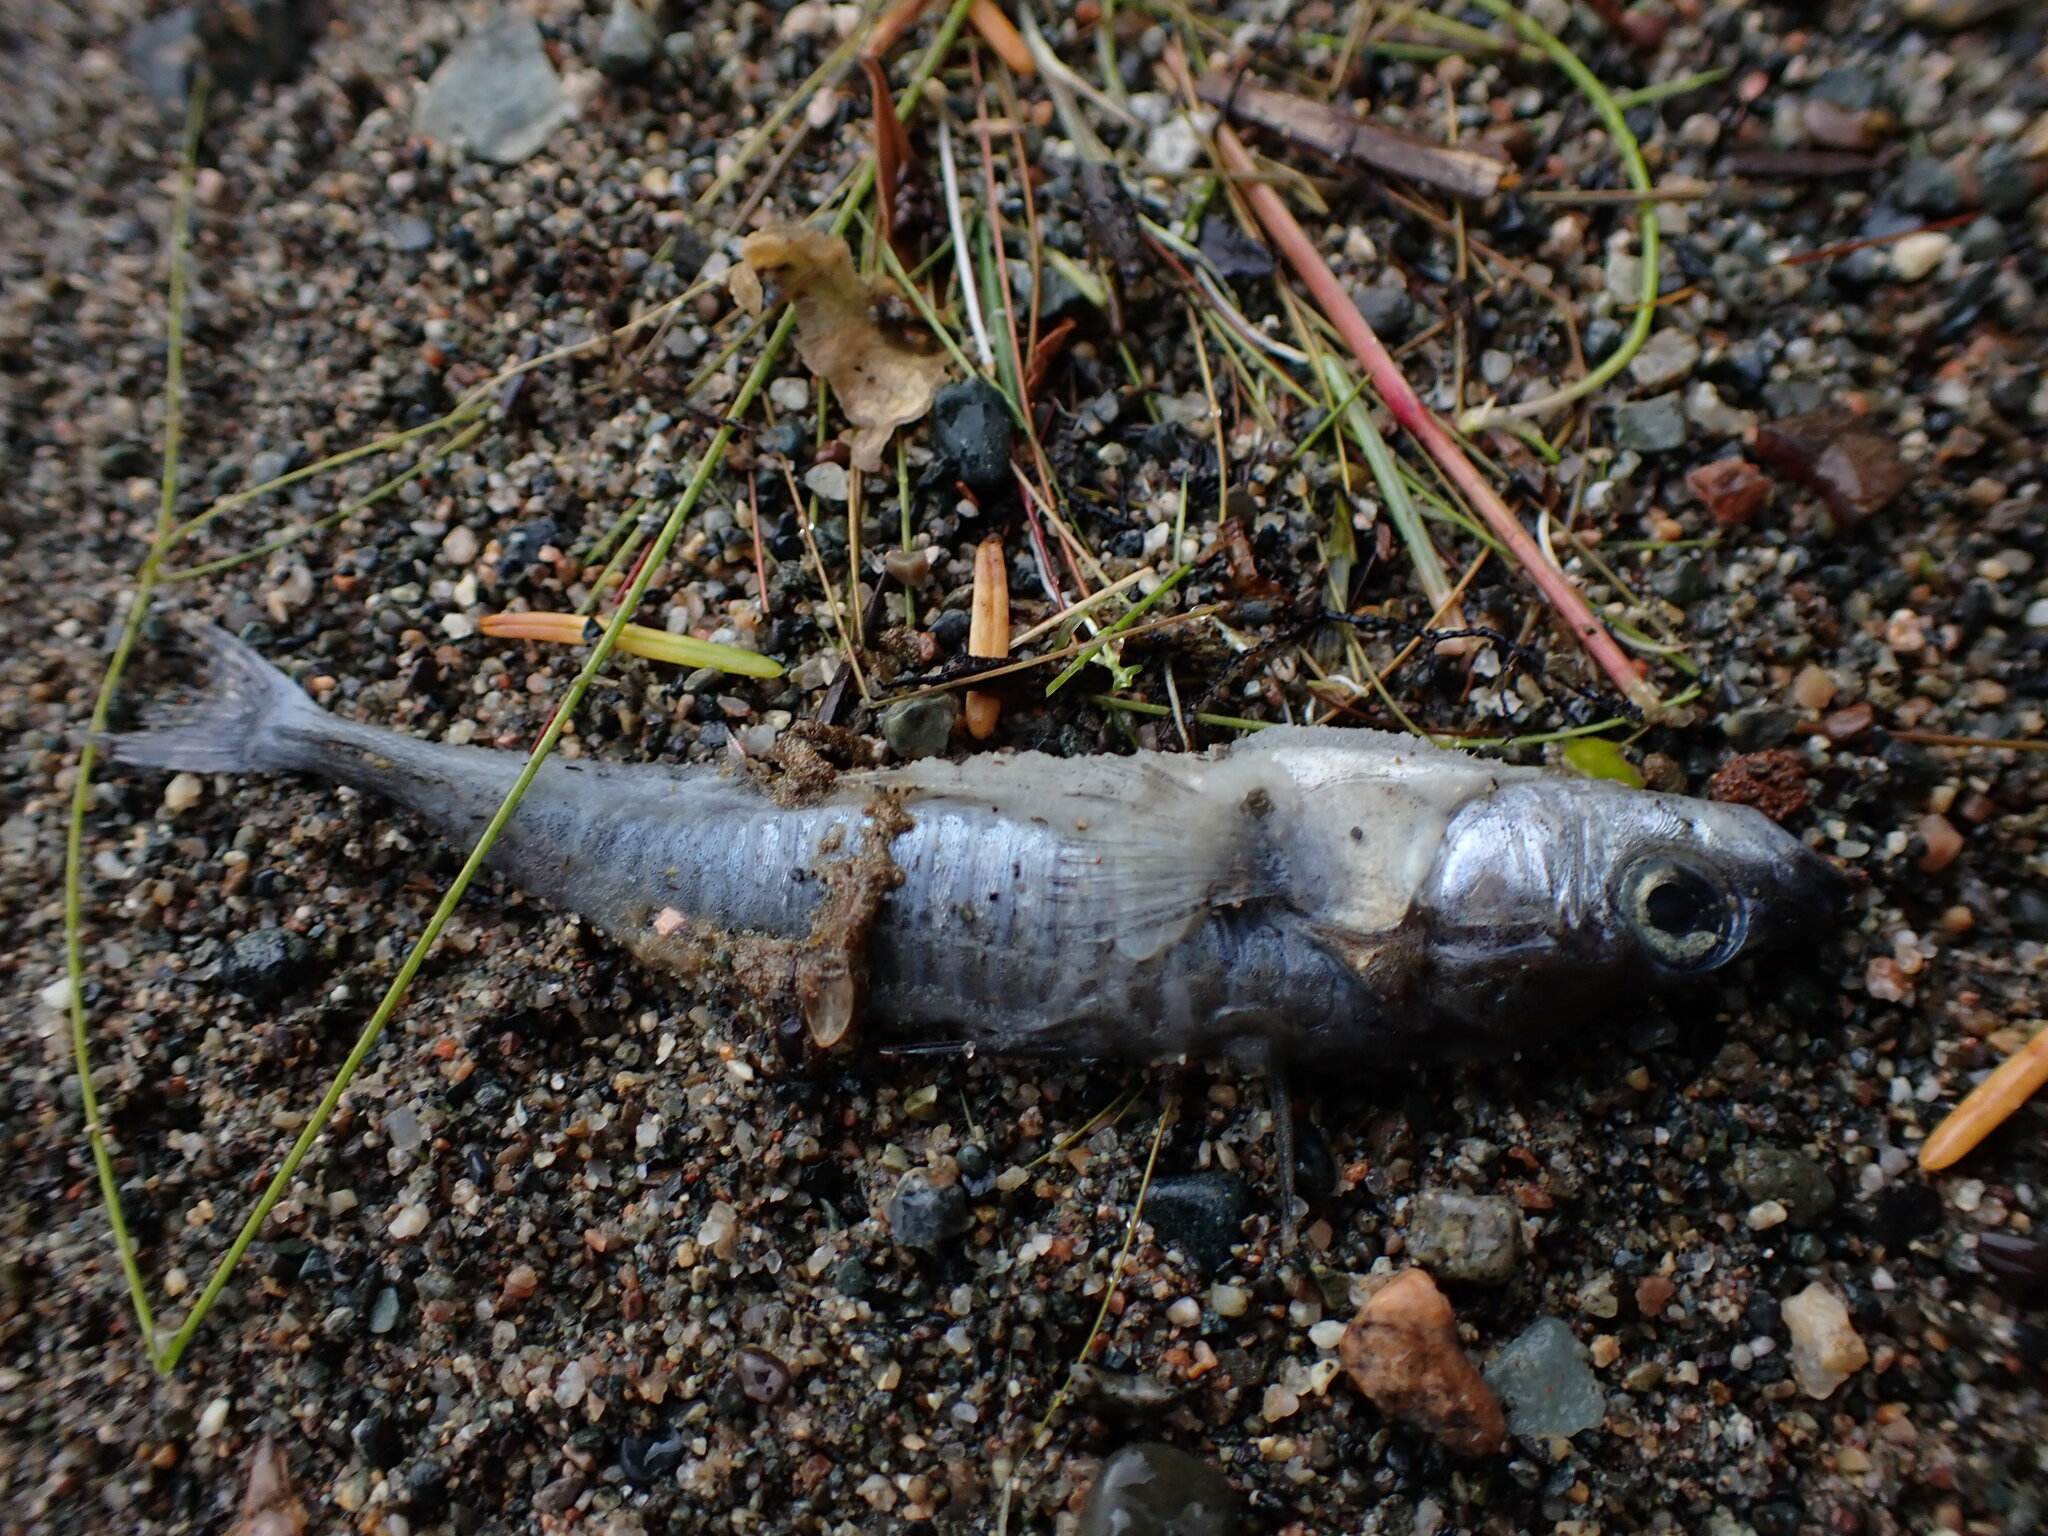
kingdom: Animalia
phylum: Chordata
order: Gasterosteiformes
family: Gasterosteidae
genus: Gasterosteus
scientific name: Gasterosteus aculeatus
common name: Three-spined stickleback
